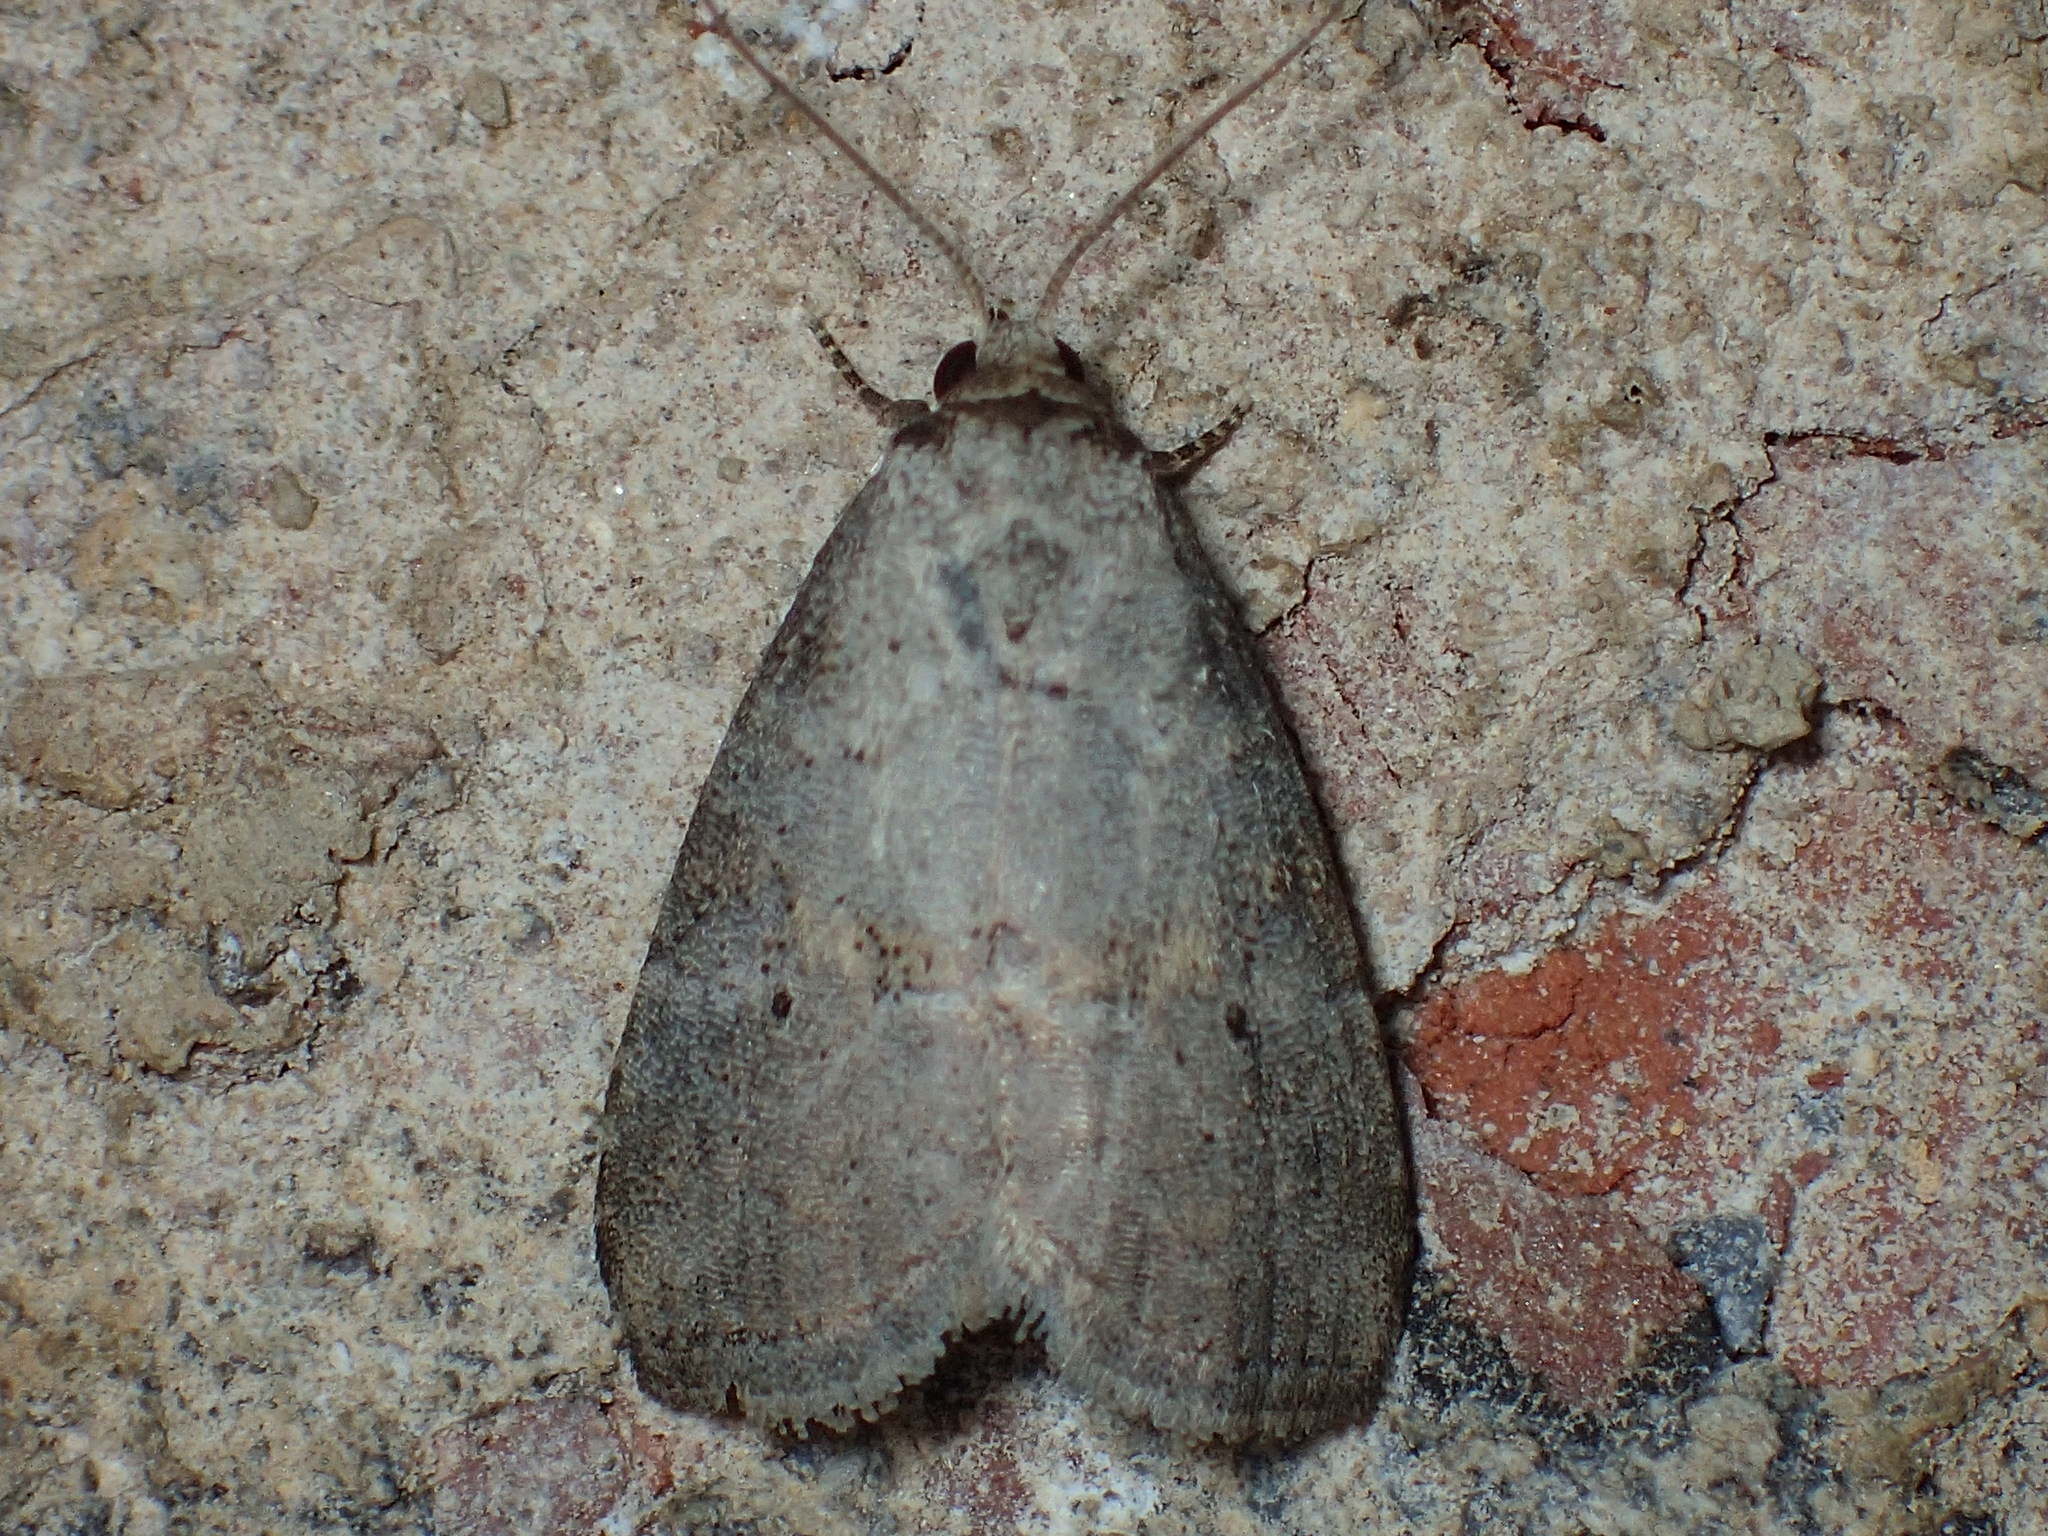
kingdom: Animalia
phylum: Arthropoda
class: Insecta
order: Lepidoptera
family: Erebidae
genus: Hyperstrotia
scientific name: Hyperstrotia nana
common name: White-lined graylet
